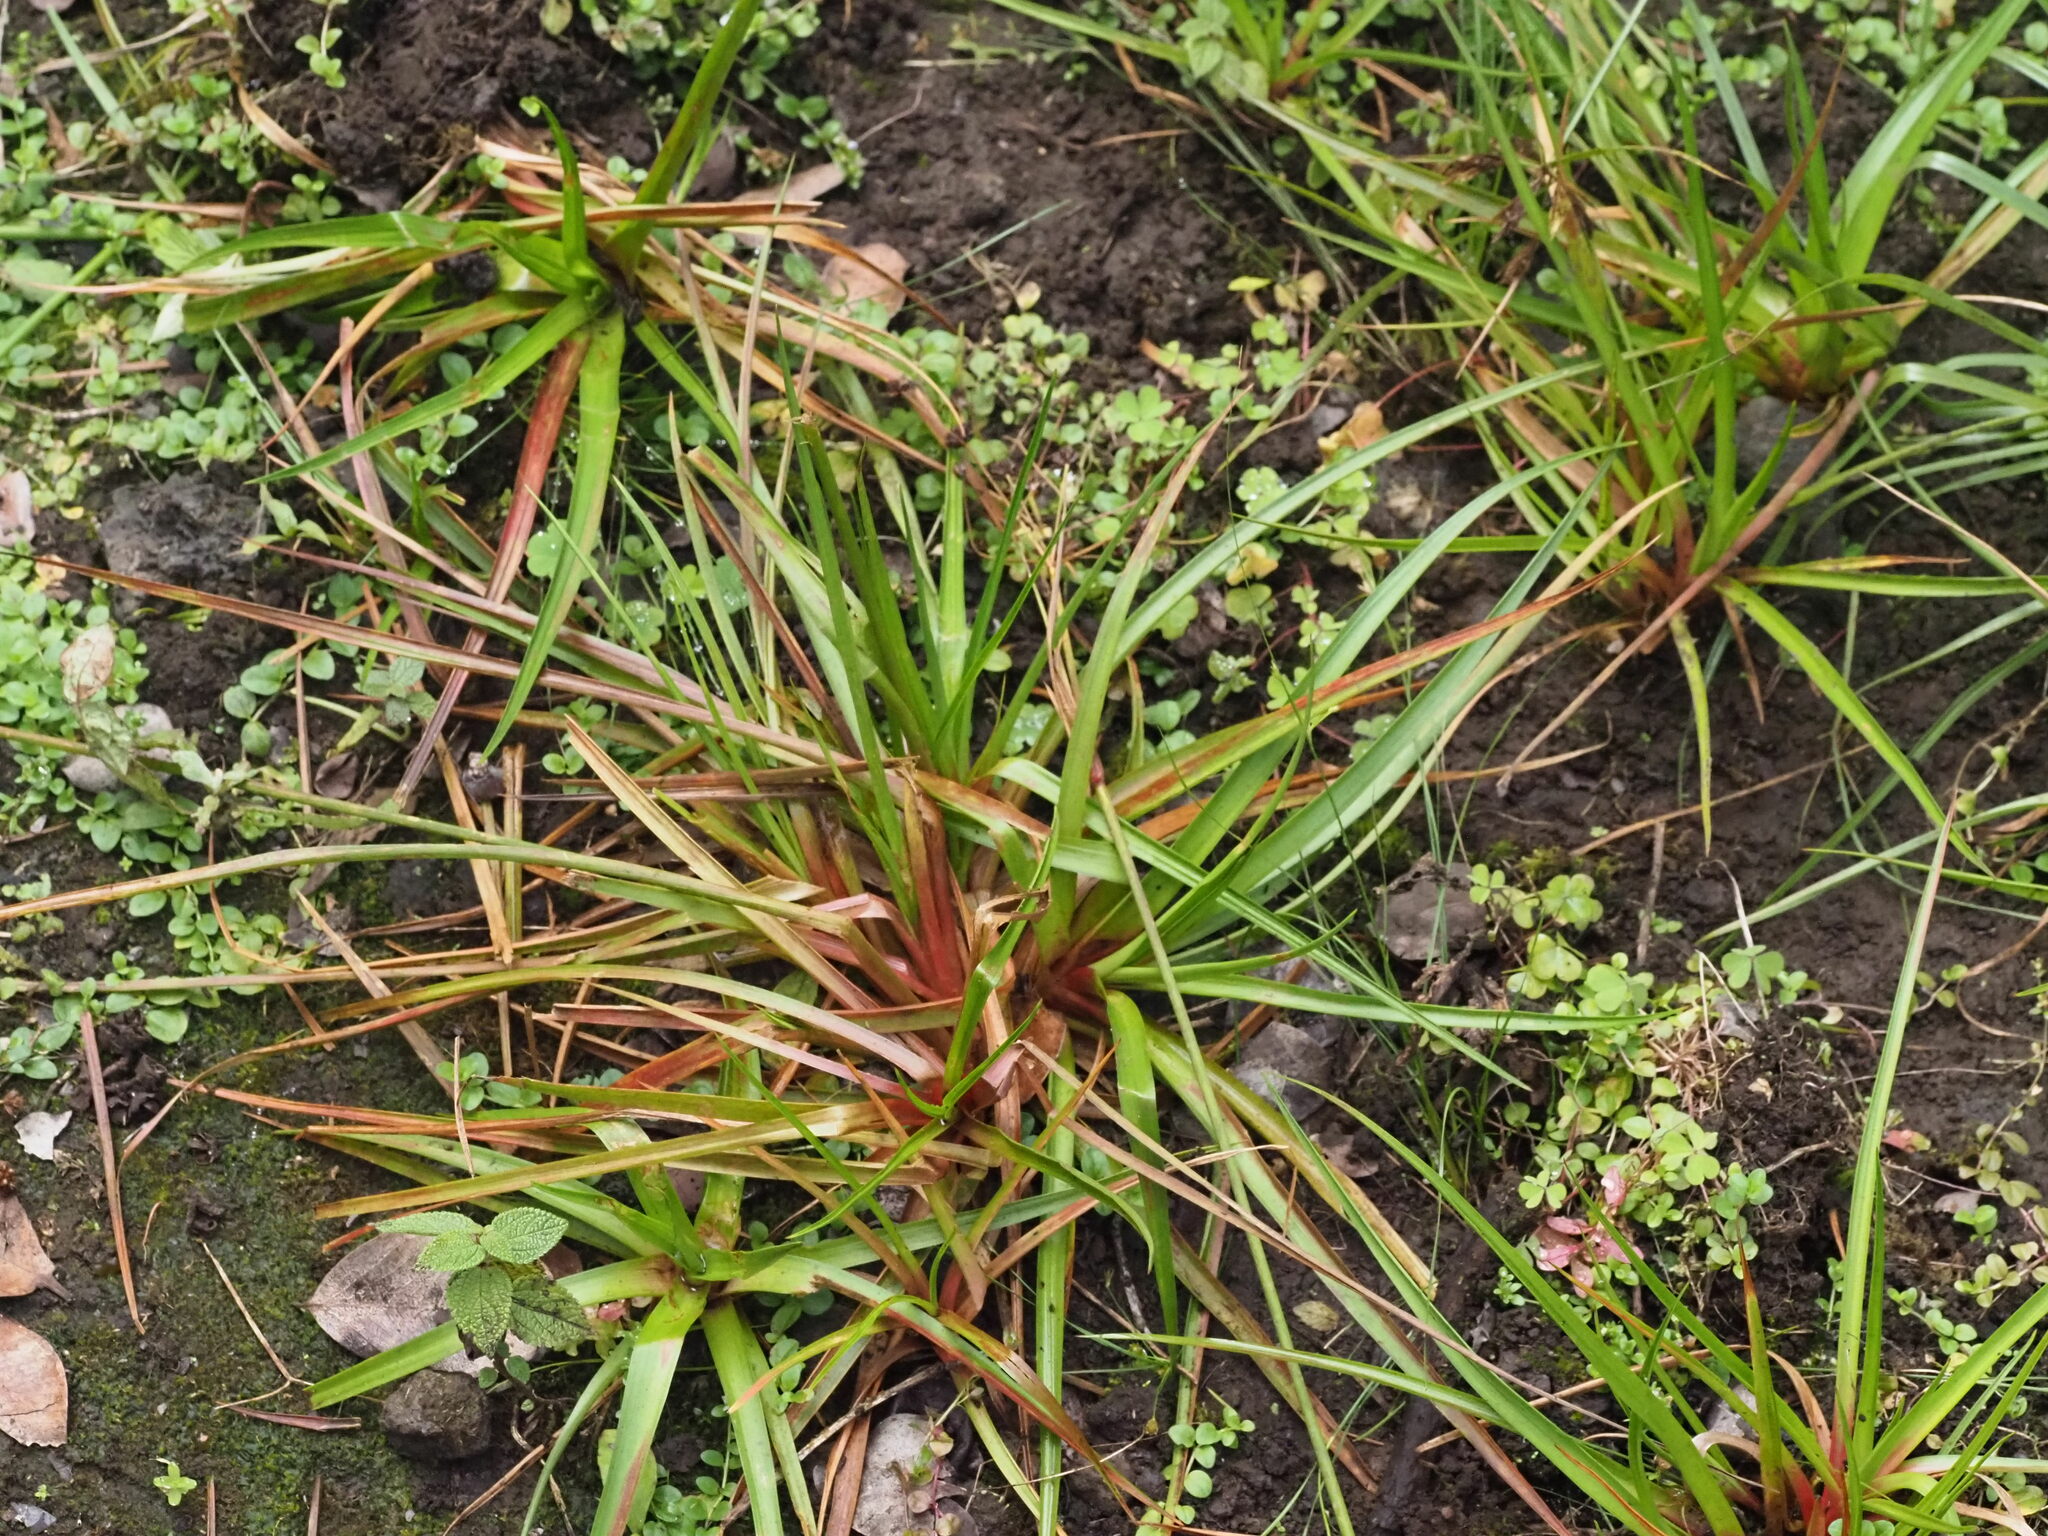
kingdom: Plantae
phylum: Tracheophyta
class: Liliopsida
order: Poales
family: Juncaceae
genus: Juncus
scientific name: Juncus planifolius
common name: Broadleaf rush
